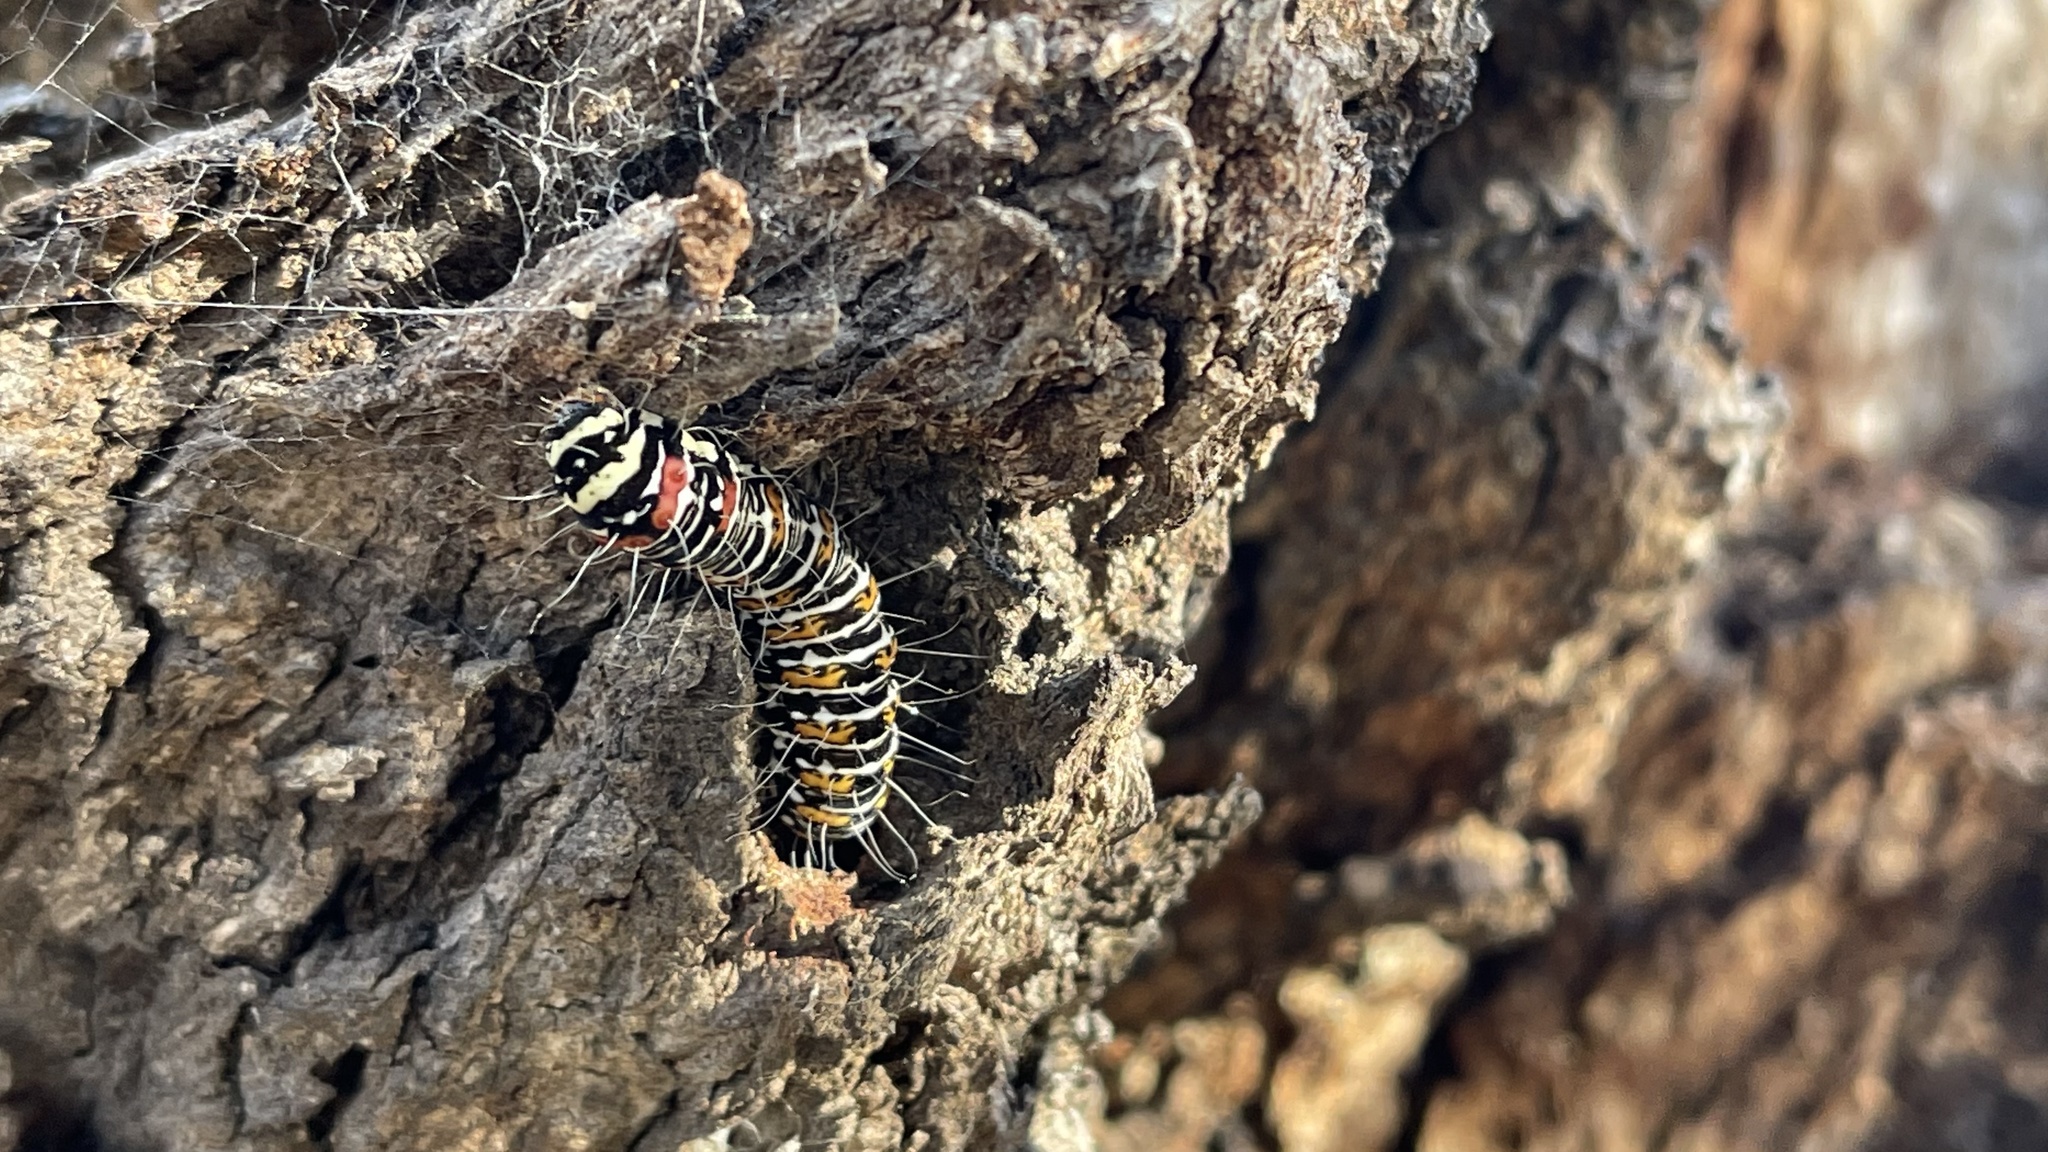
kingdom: Animalia
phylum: Arthropoda
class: Insecta
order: Lepidoptera
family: Noctuidae
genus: Eutrichopidia
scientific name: Eutrichopidia latinus
